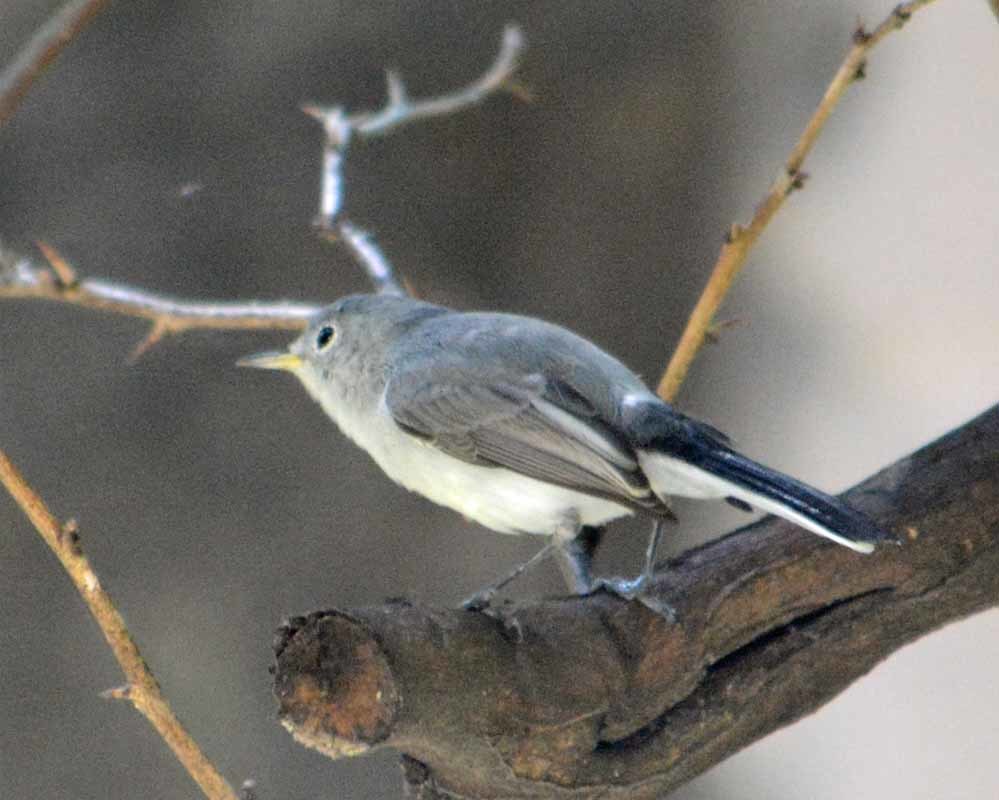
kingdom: Animalia
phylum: Chordata
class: Aves
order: Passeriformes
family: Polioptilidae
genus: Polioptila
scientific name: Polioptila caerulea
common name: Blue-gray gnatcatcher
